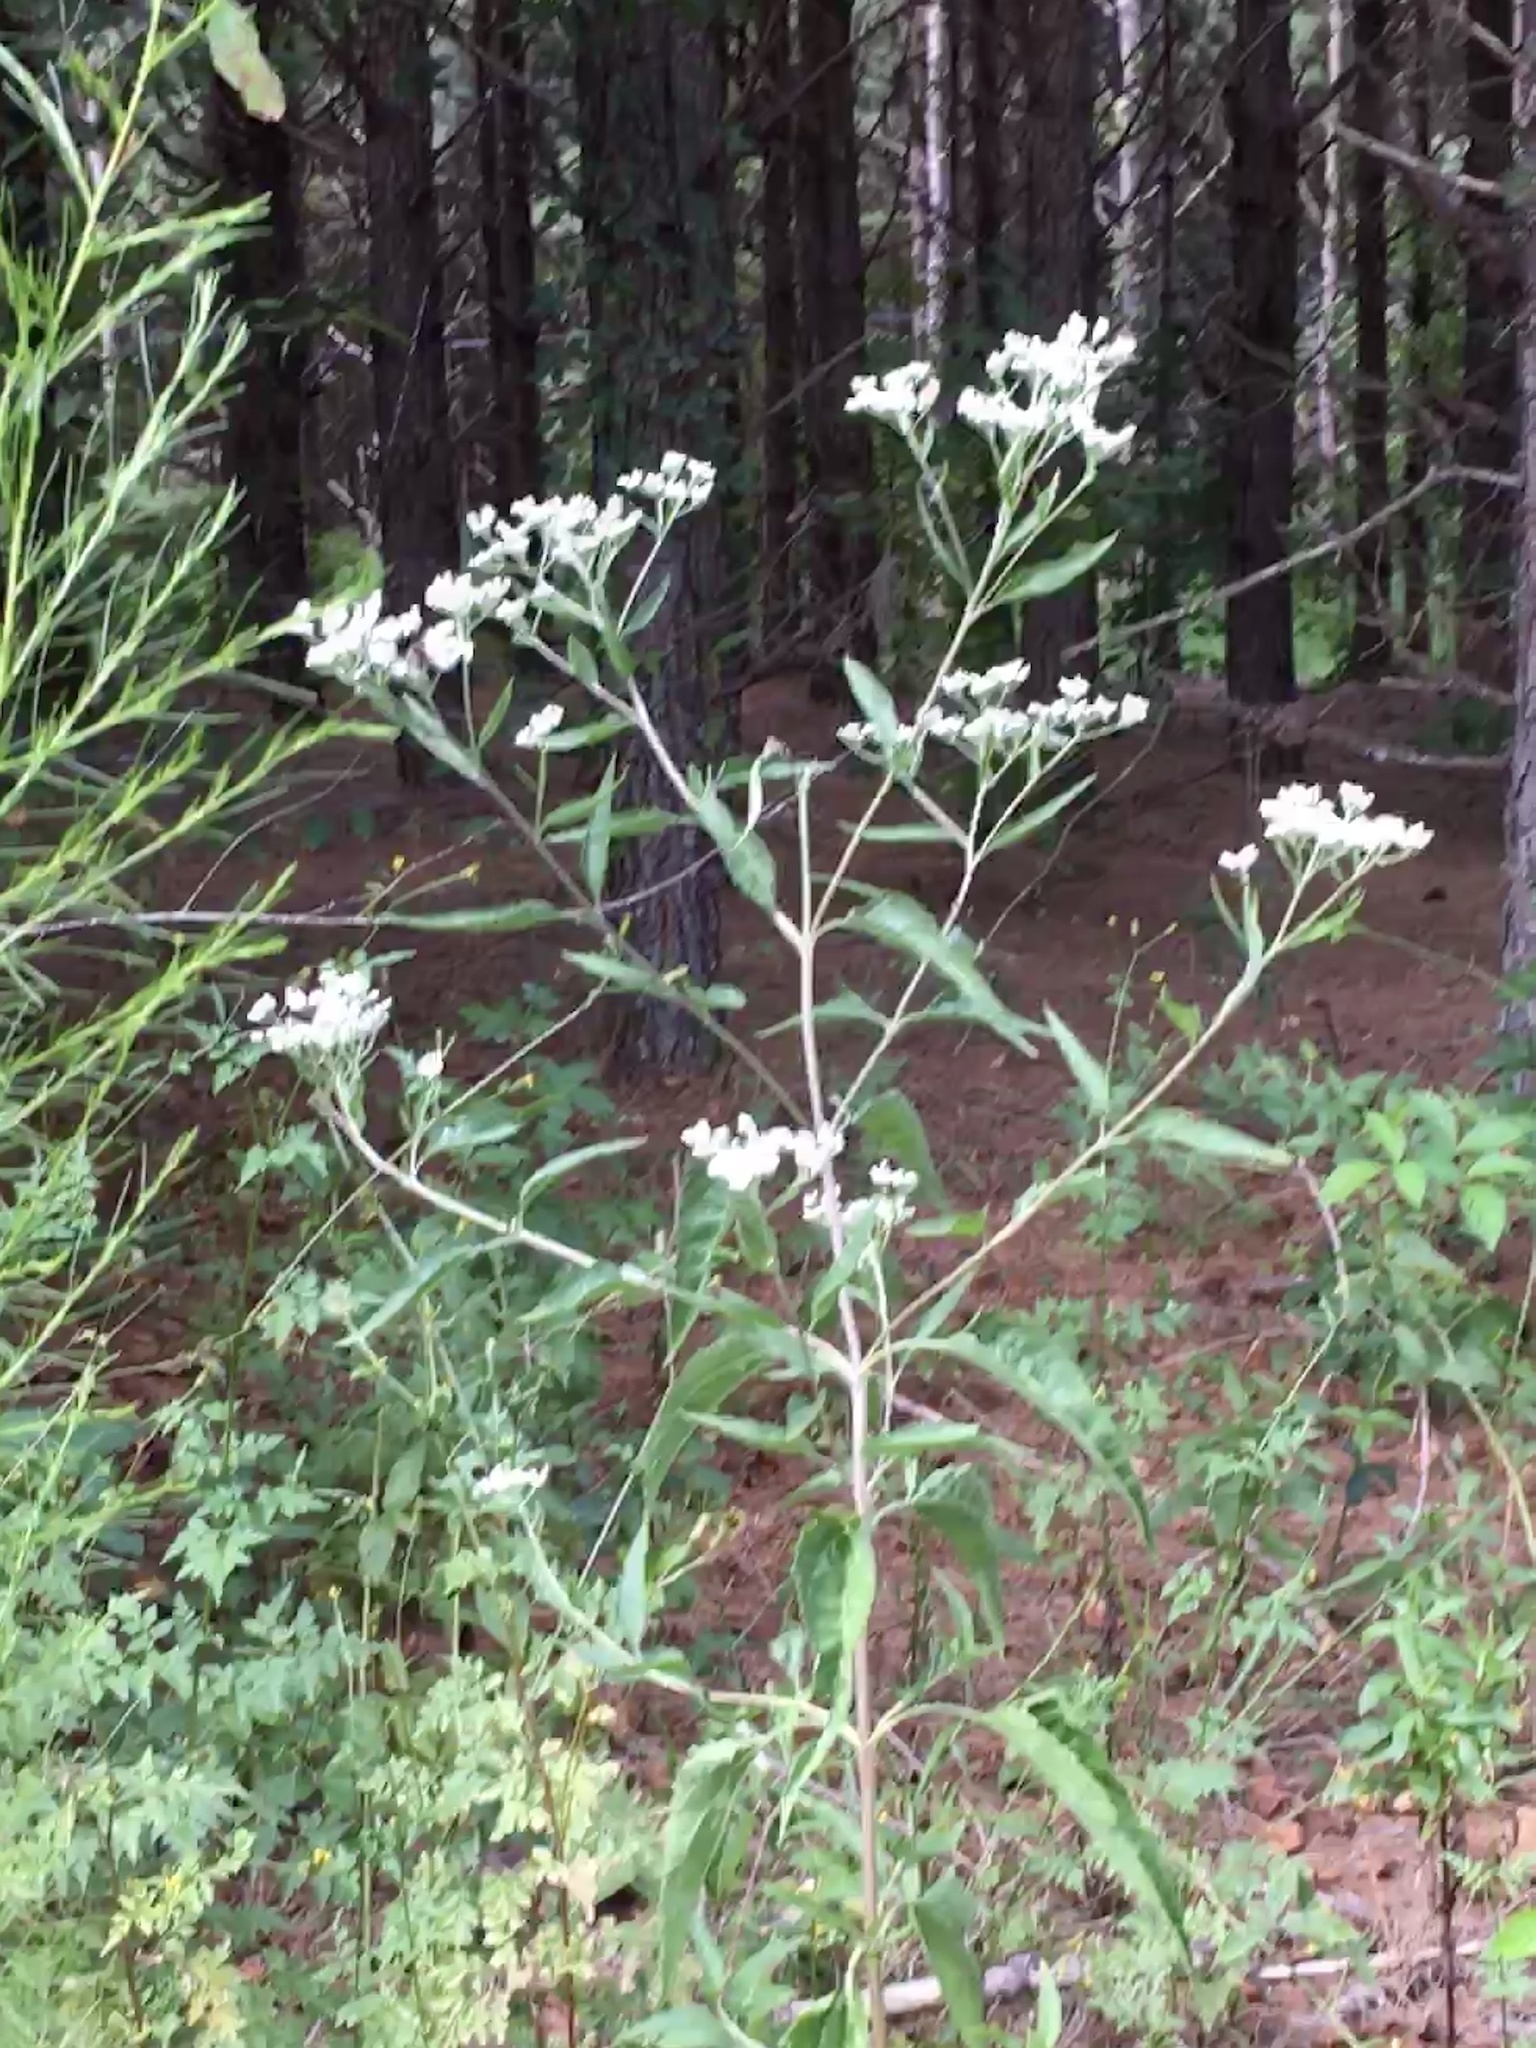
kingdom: Plantae
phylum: Tracheophyta
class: Magnoliopsida
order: Asterales
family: Asteraceae
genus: Eupatorium
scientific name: Eupatorium serotinum
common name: Late boneset
